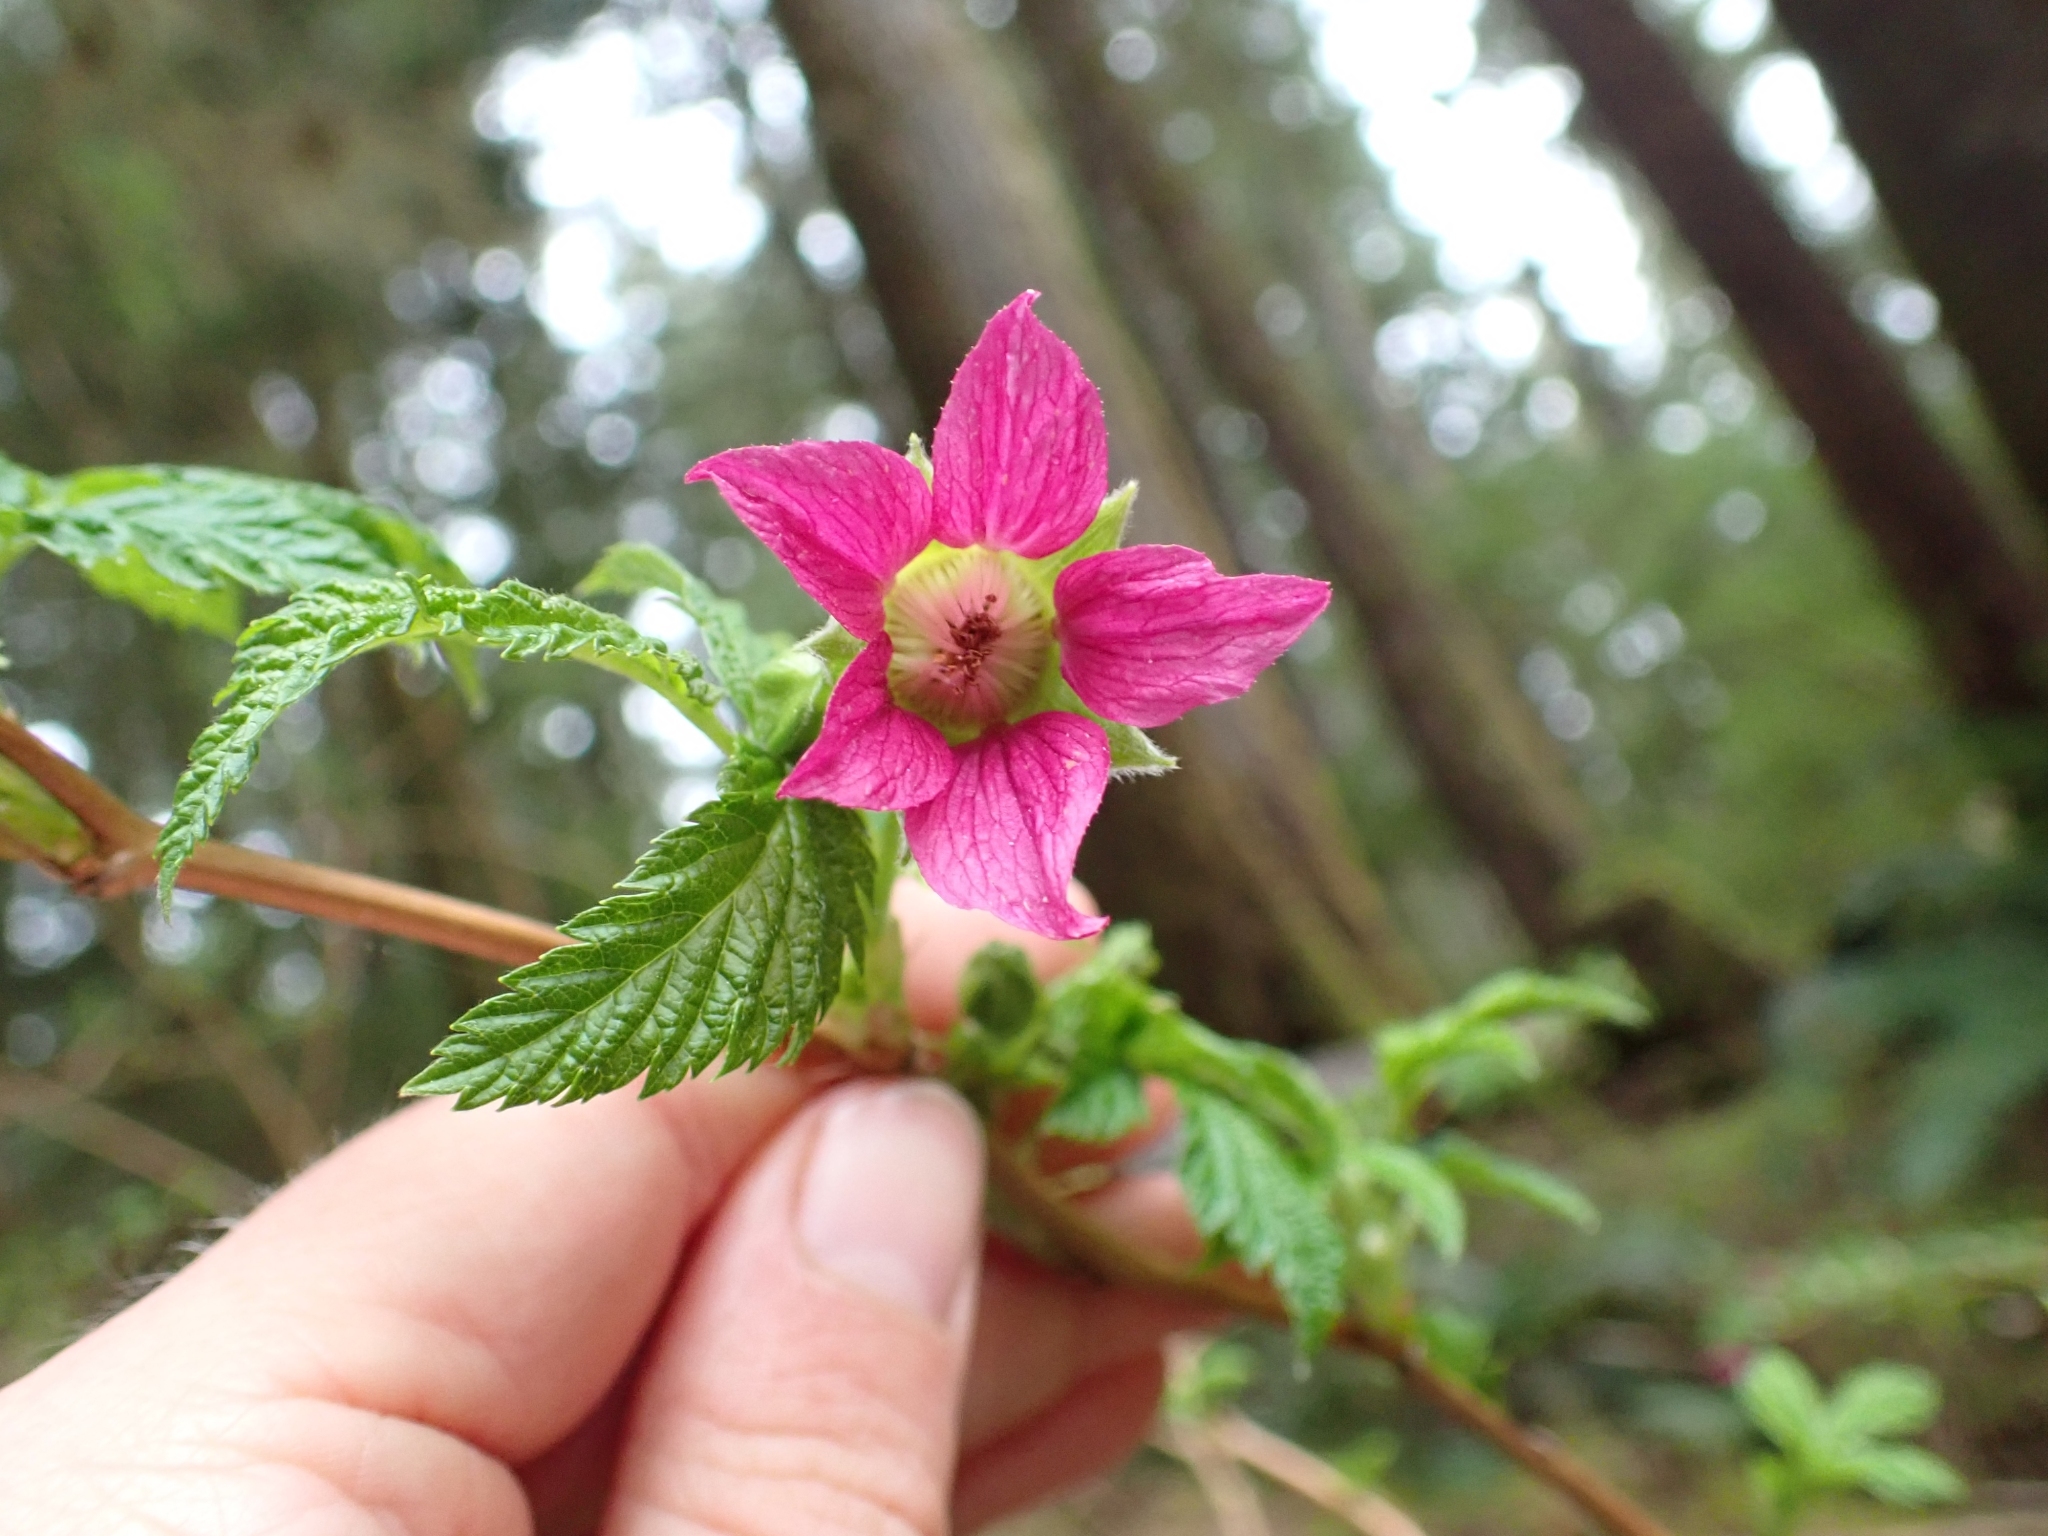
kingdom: Plantae
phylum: Tracheophyta
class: Magnoliopsida
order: Rosales
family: Rosaceae
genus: Rubus
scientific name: Rubus spectabilis
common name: Salmonberry
